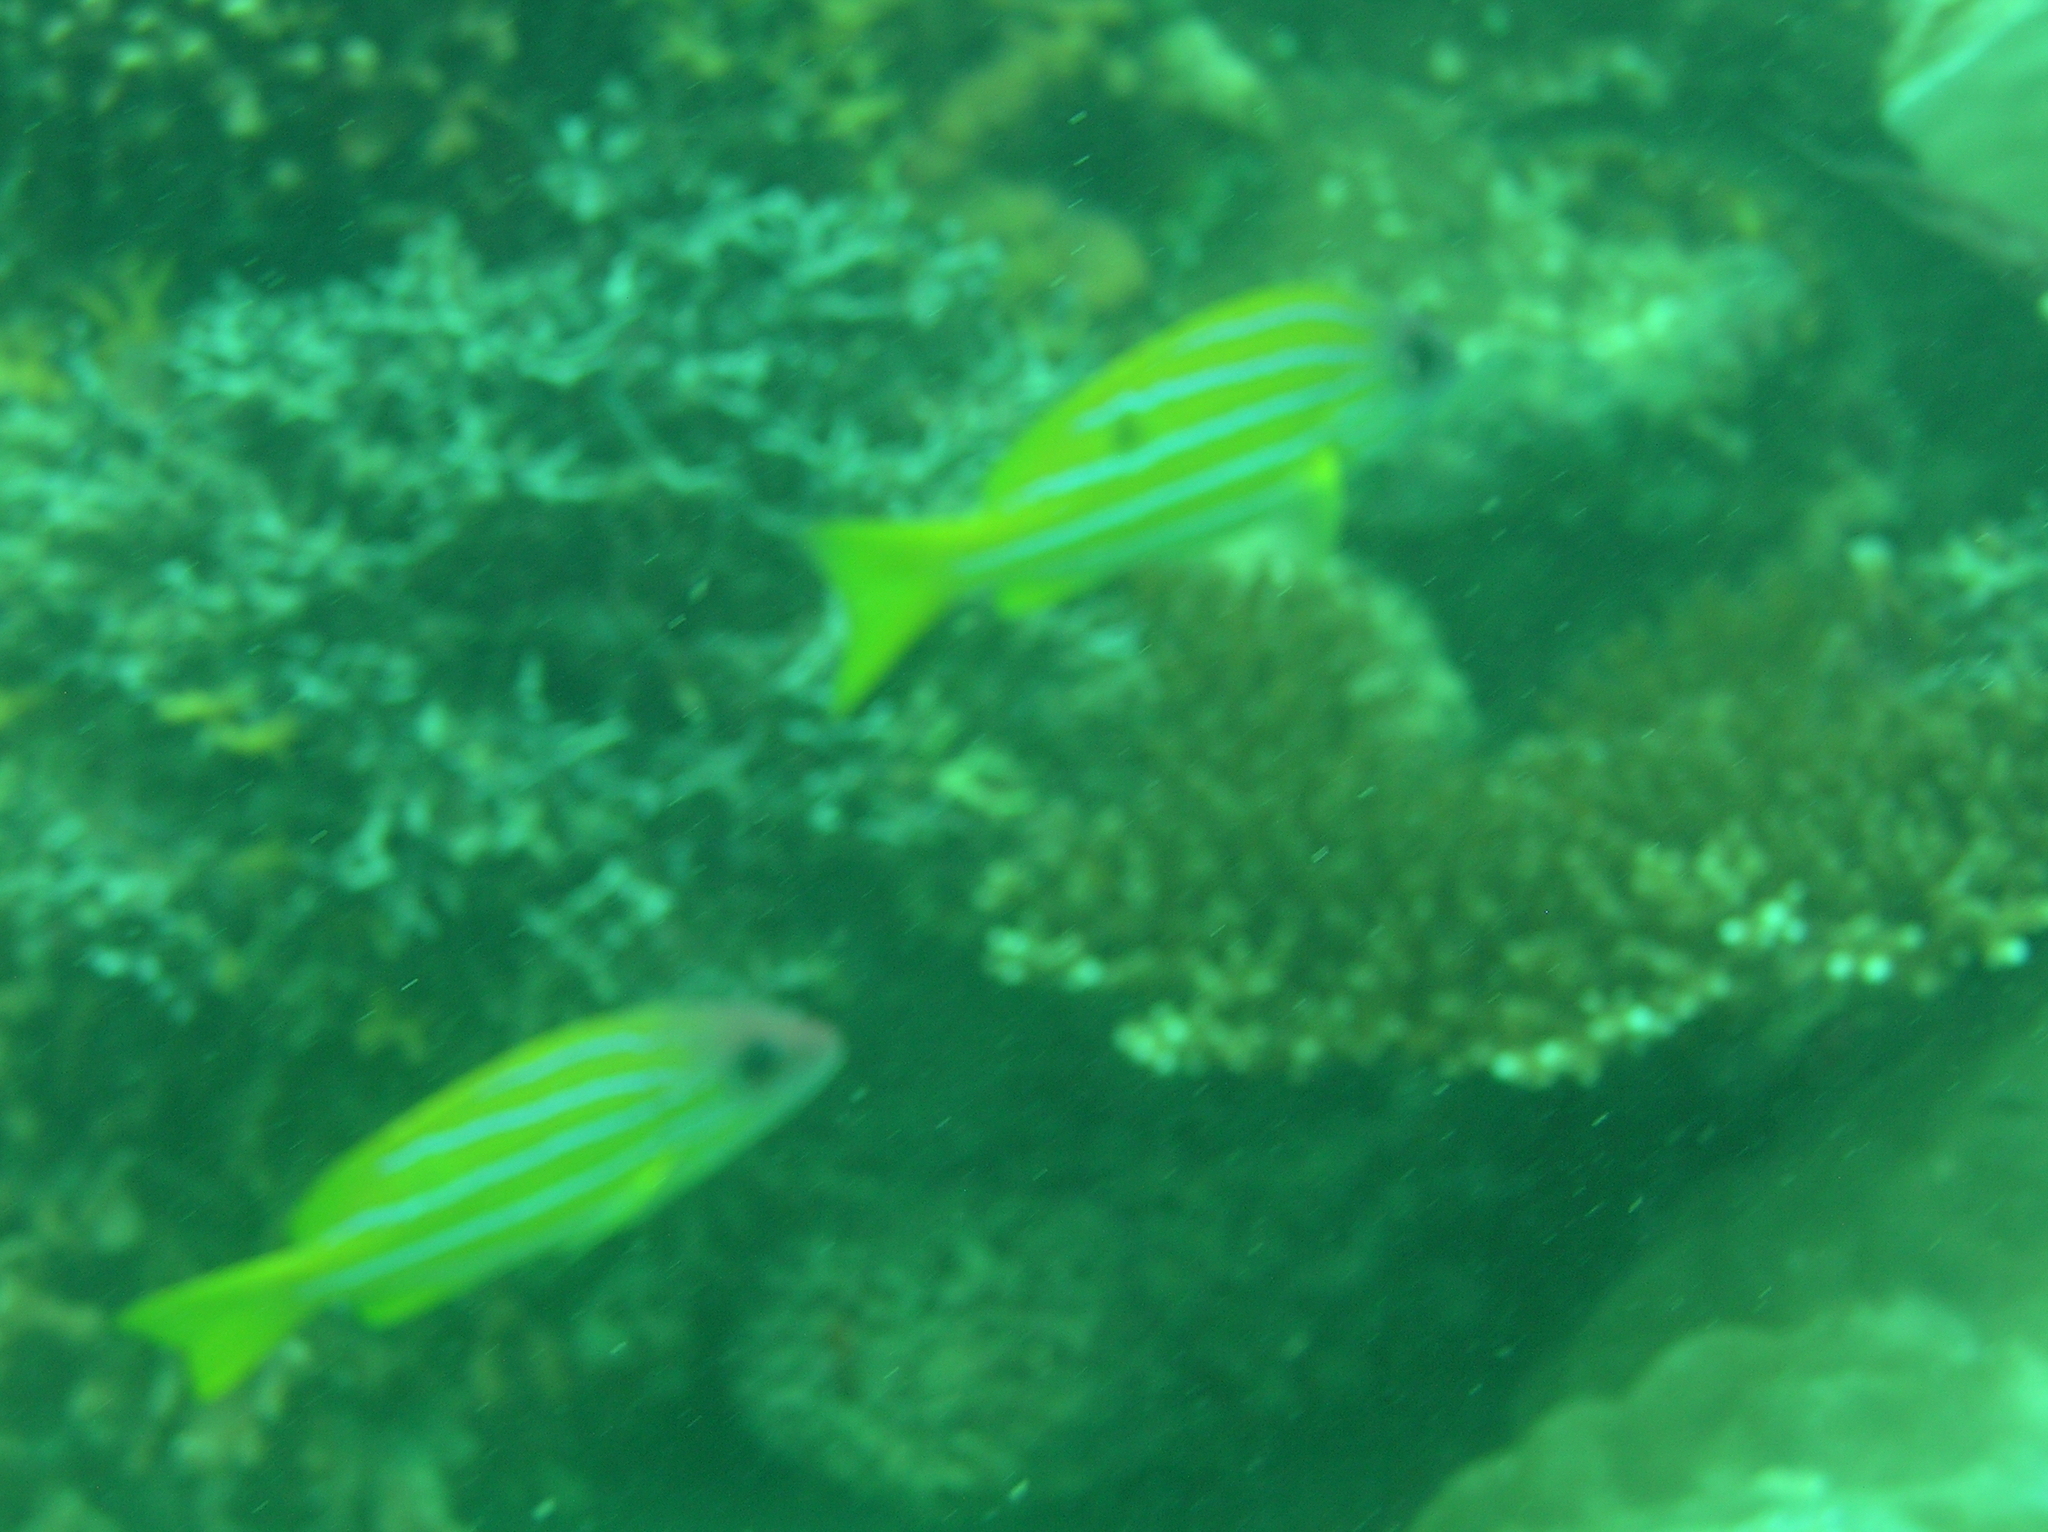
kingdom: Animalia
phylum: Chordata
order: Perciformes
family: Lutjanidae
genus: Lutjanus
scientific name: Lutjanus quinquelineatus
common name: Five-lined snapper
